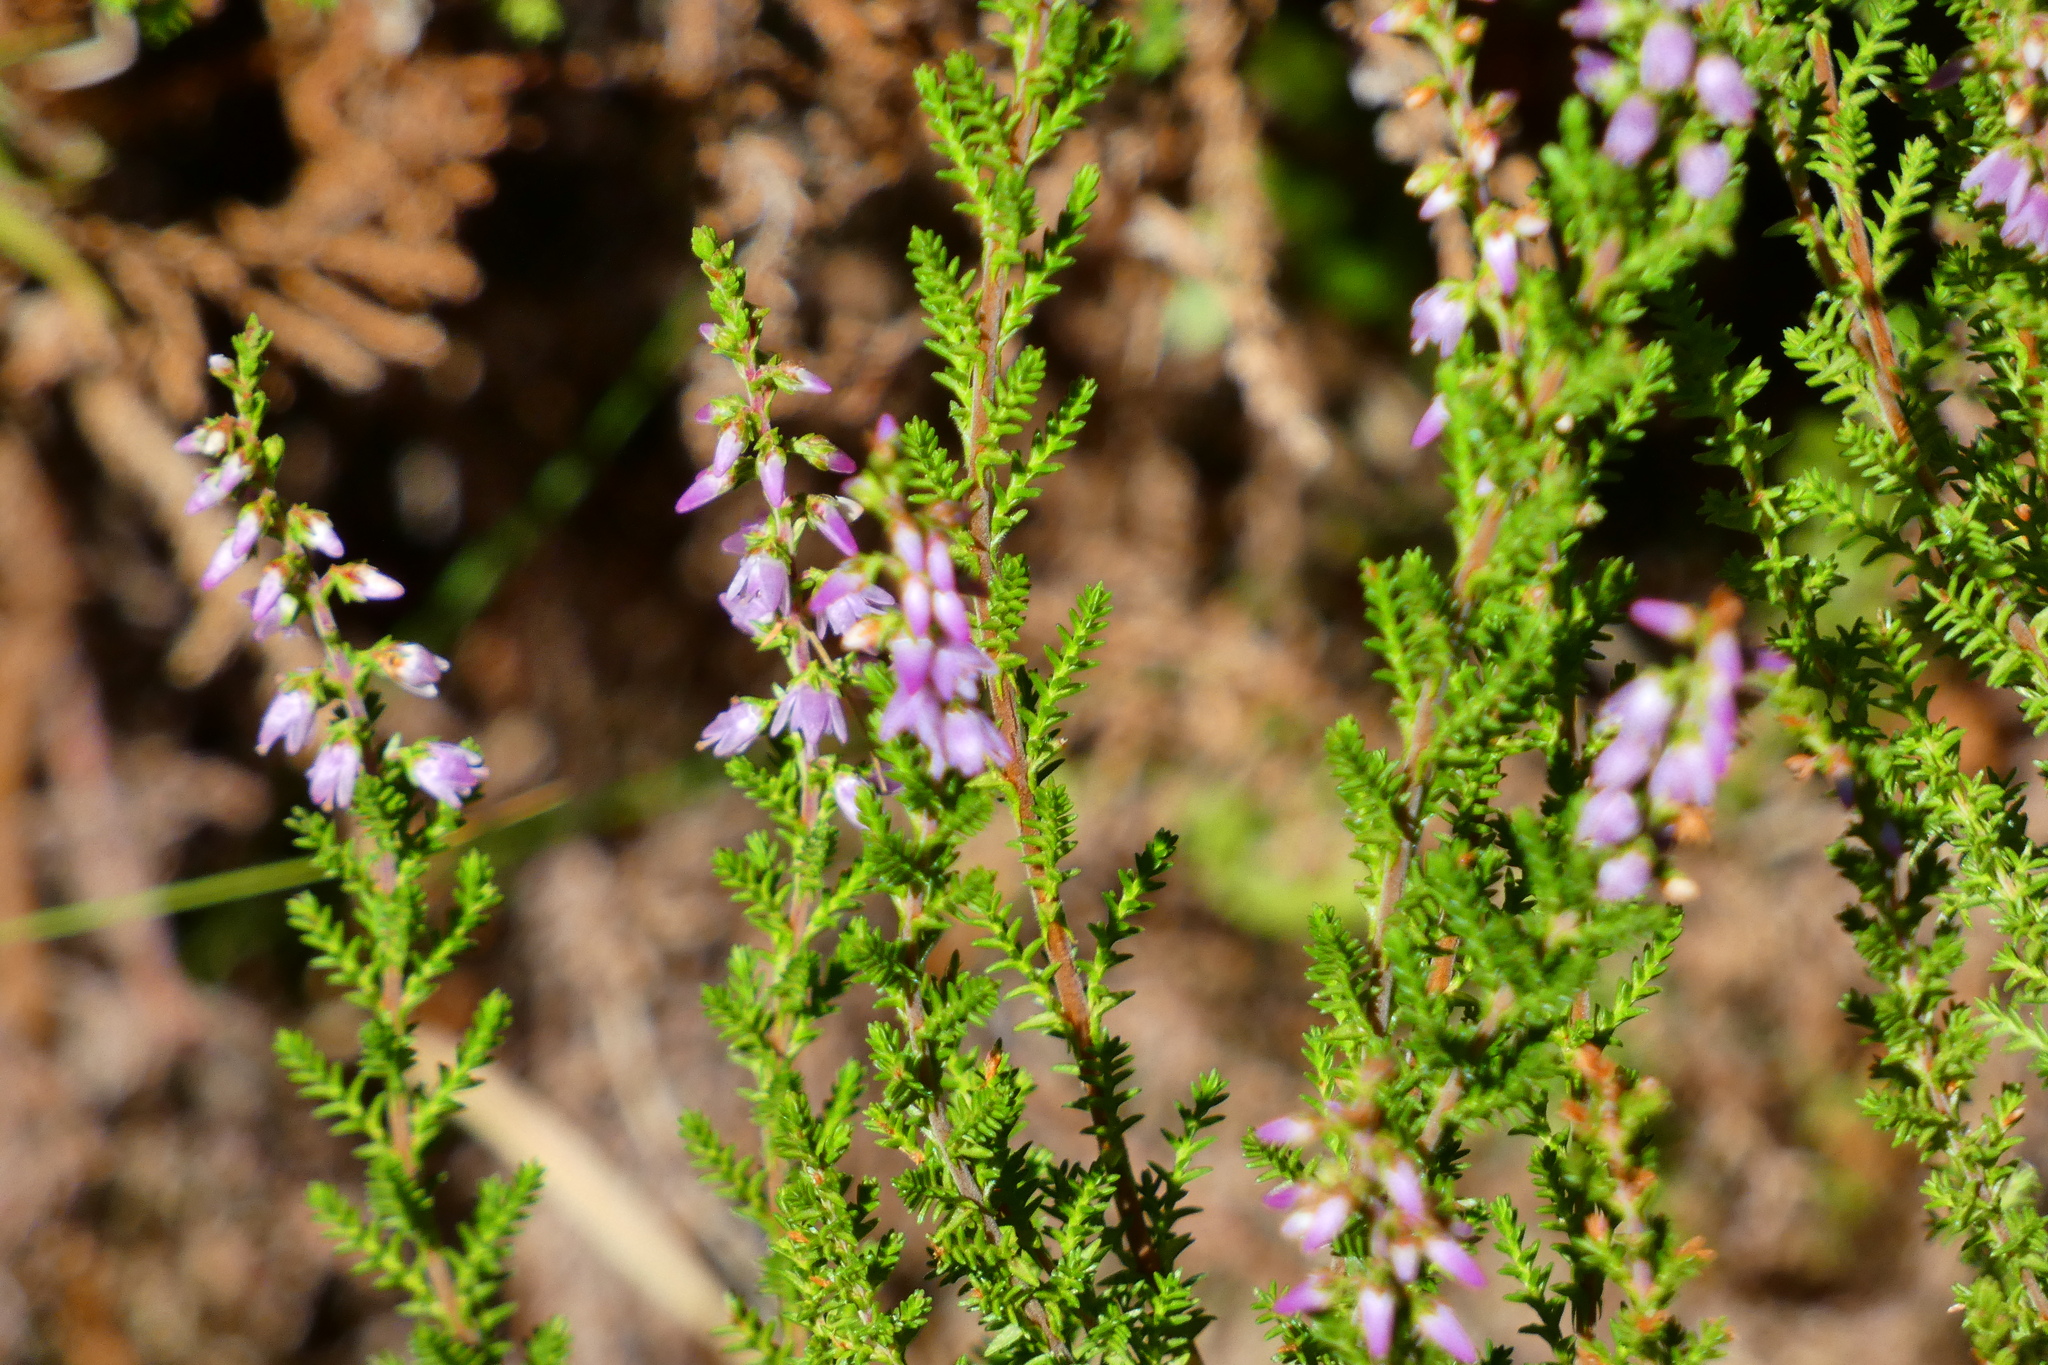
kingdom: Plantae
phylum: Tracheophyta
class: Magnoliopsida
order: Ericales
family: Ericaceae
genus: Calluna
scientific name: Calluna vulgaris
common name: Heather
